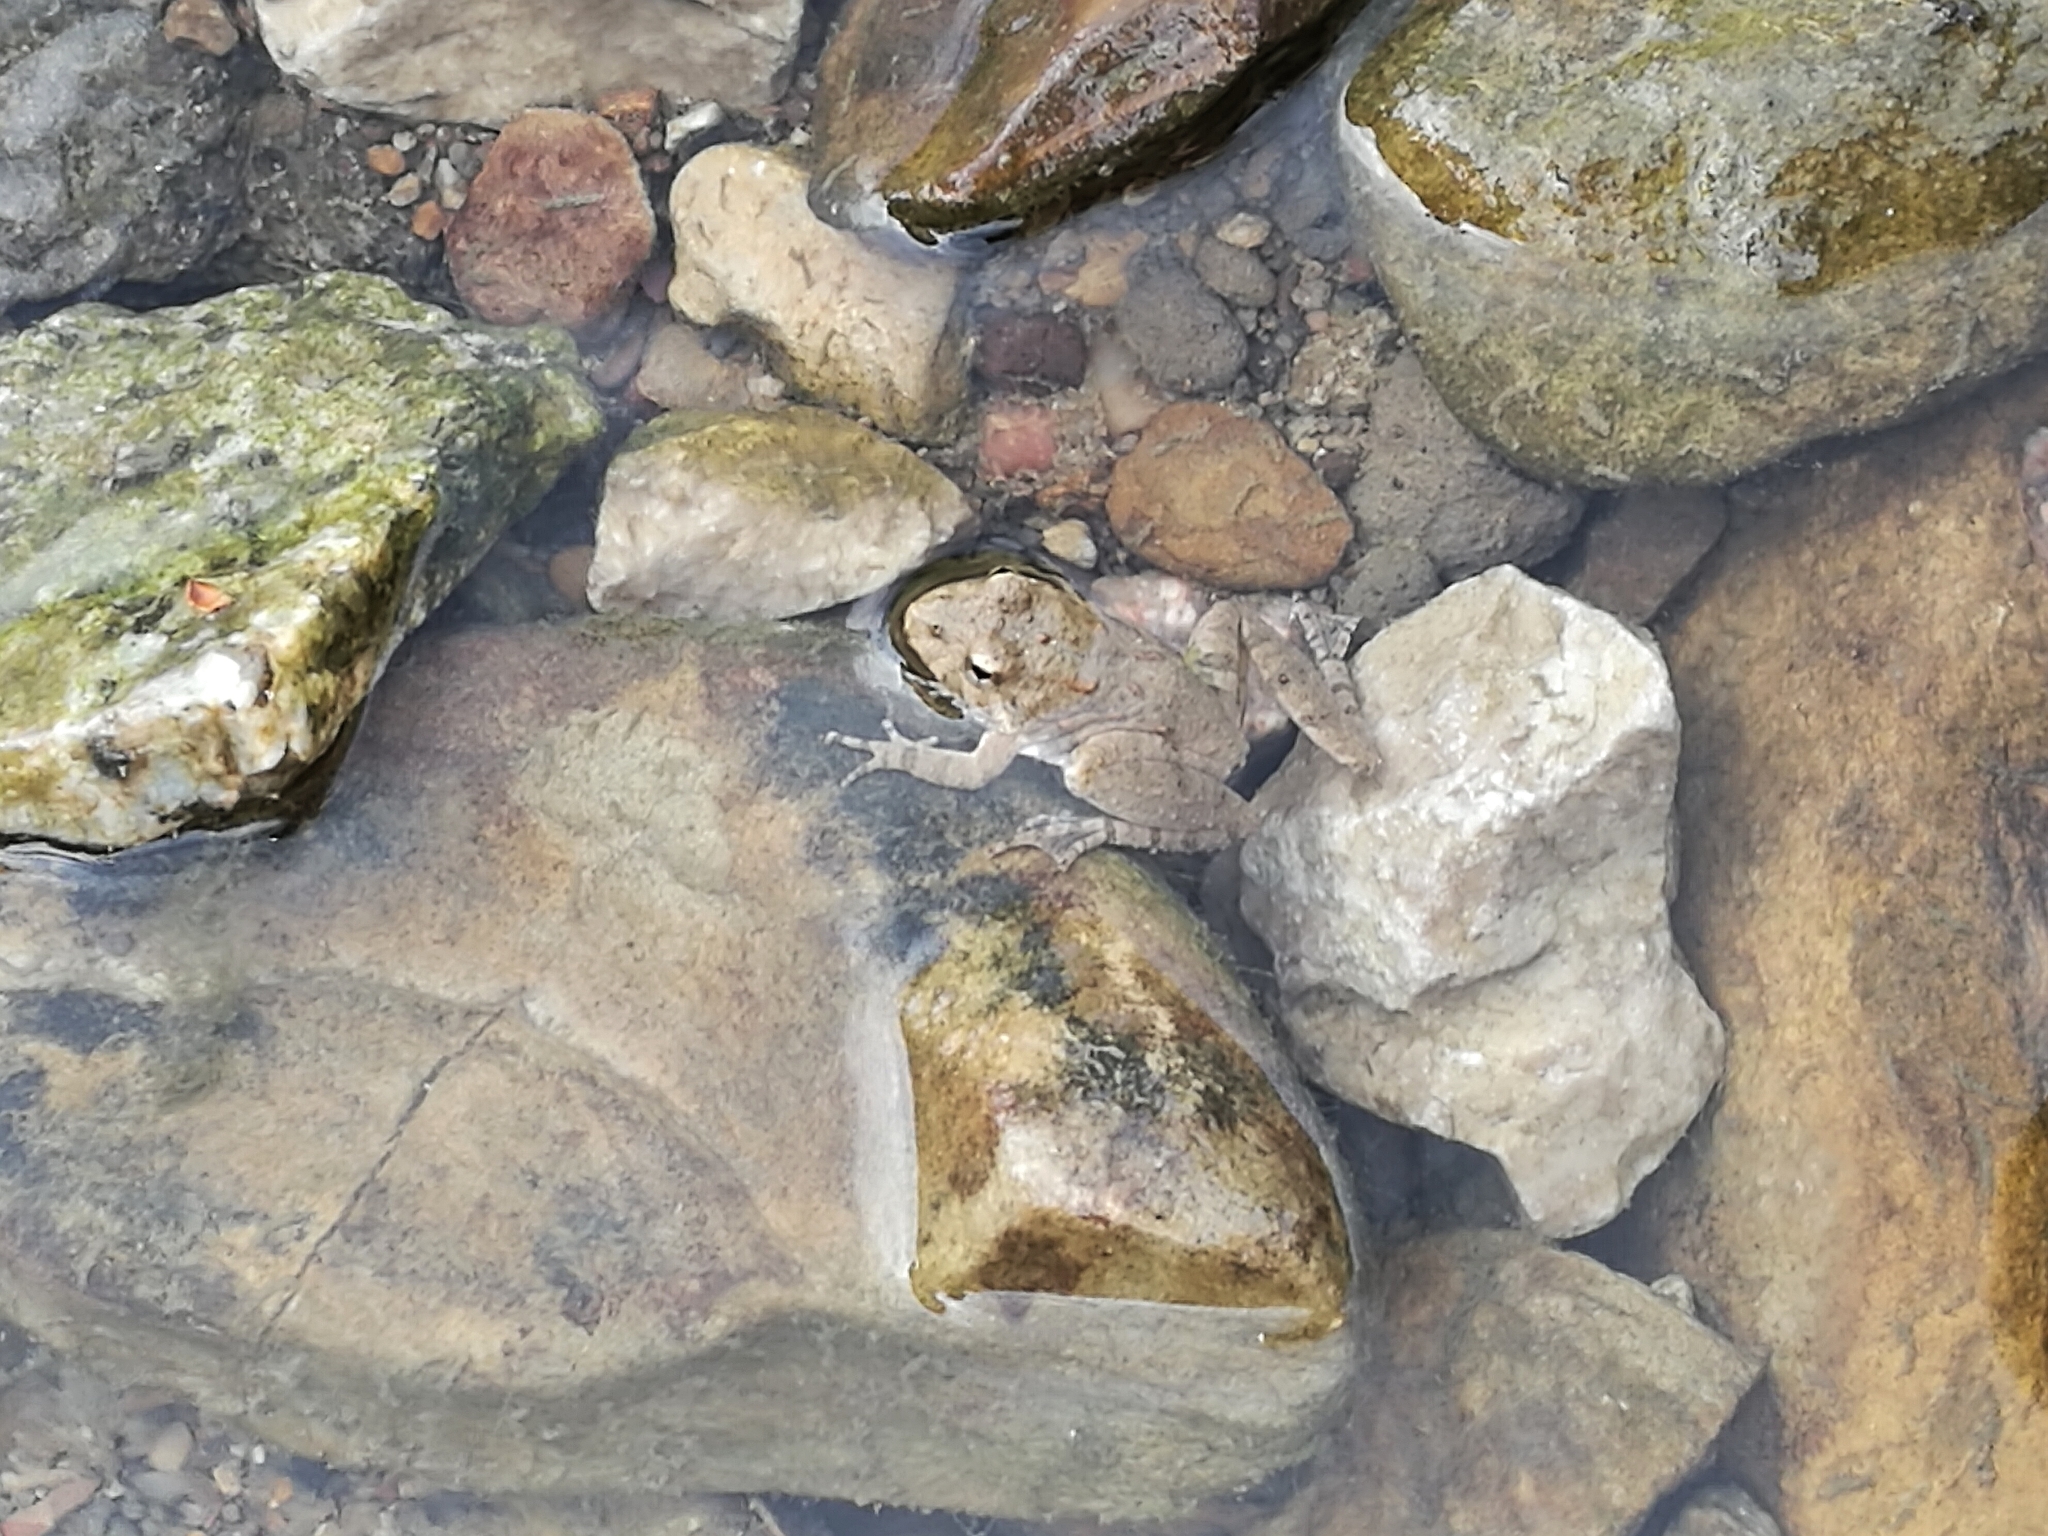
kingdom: Animalia
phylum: Chordata
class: Amphibia
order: Anura
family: Hylidae
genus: Acris
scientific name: Acris blanchardi
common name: Blanchard's cricket frog
